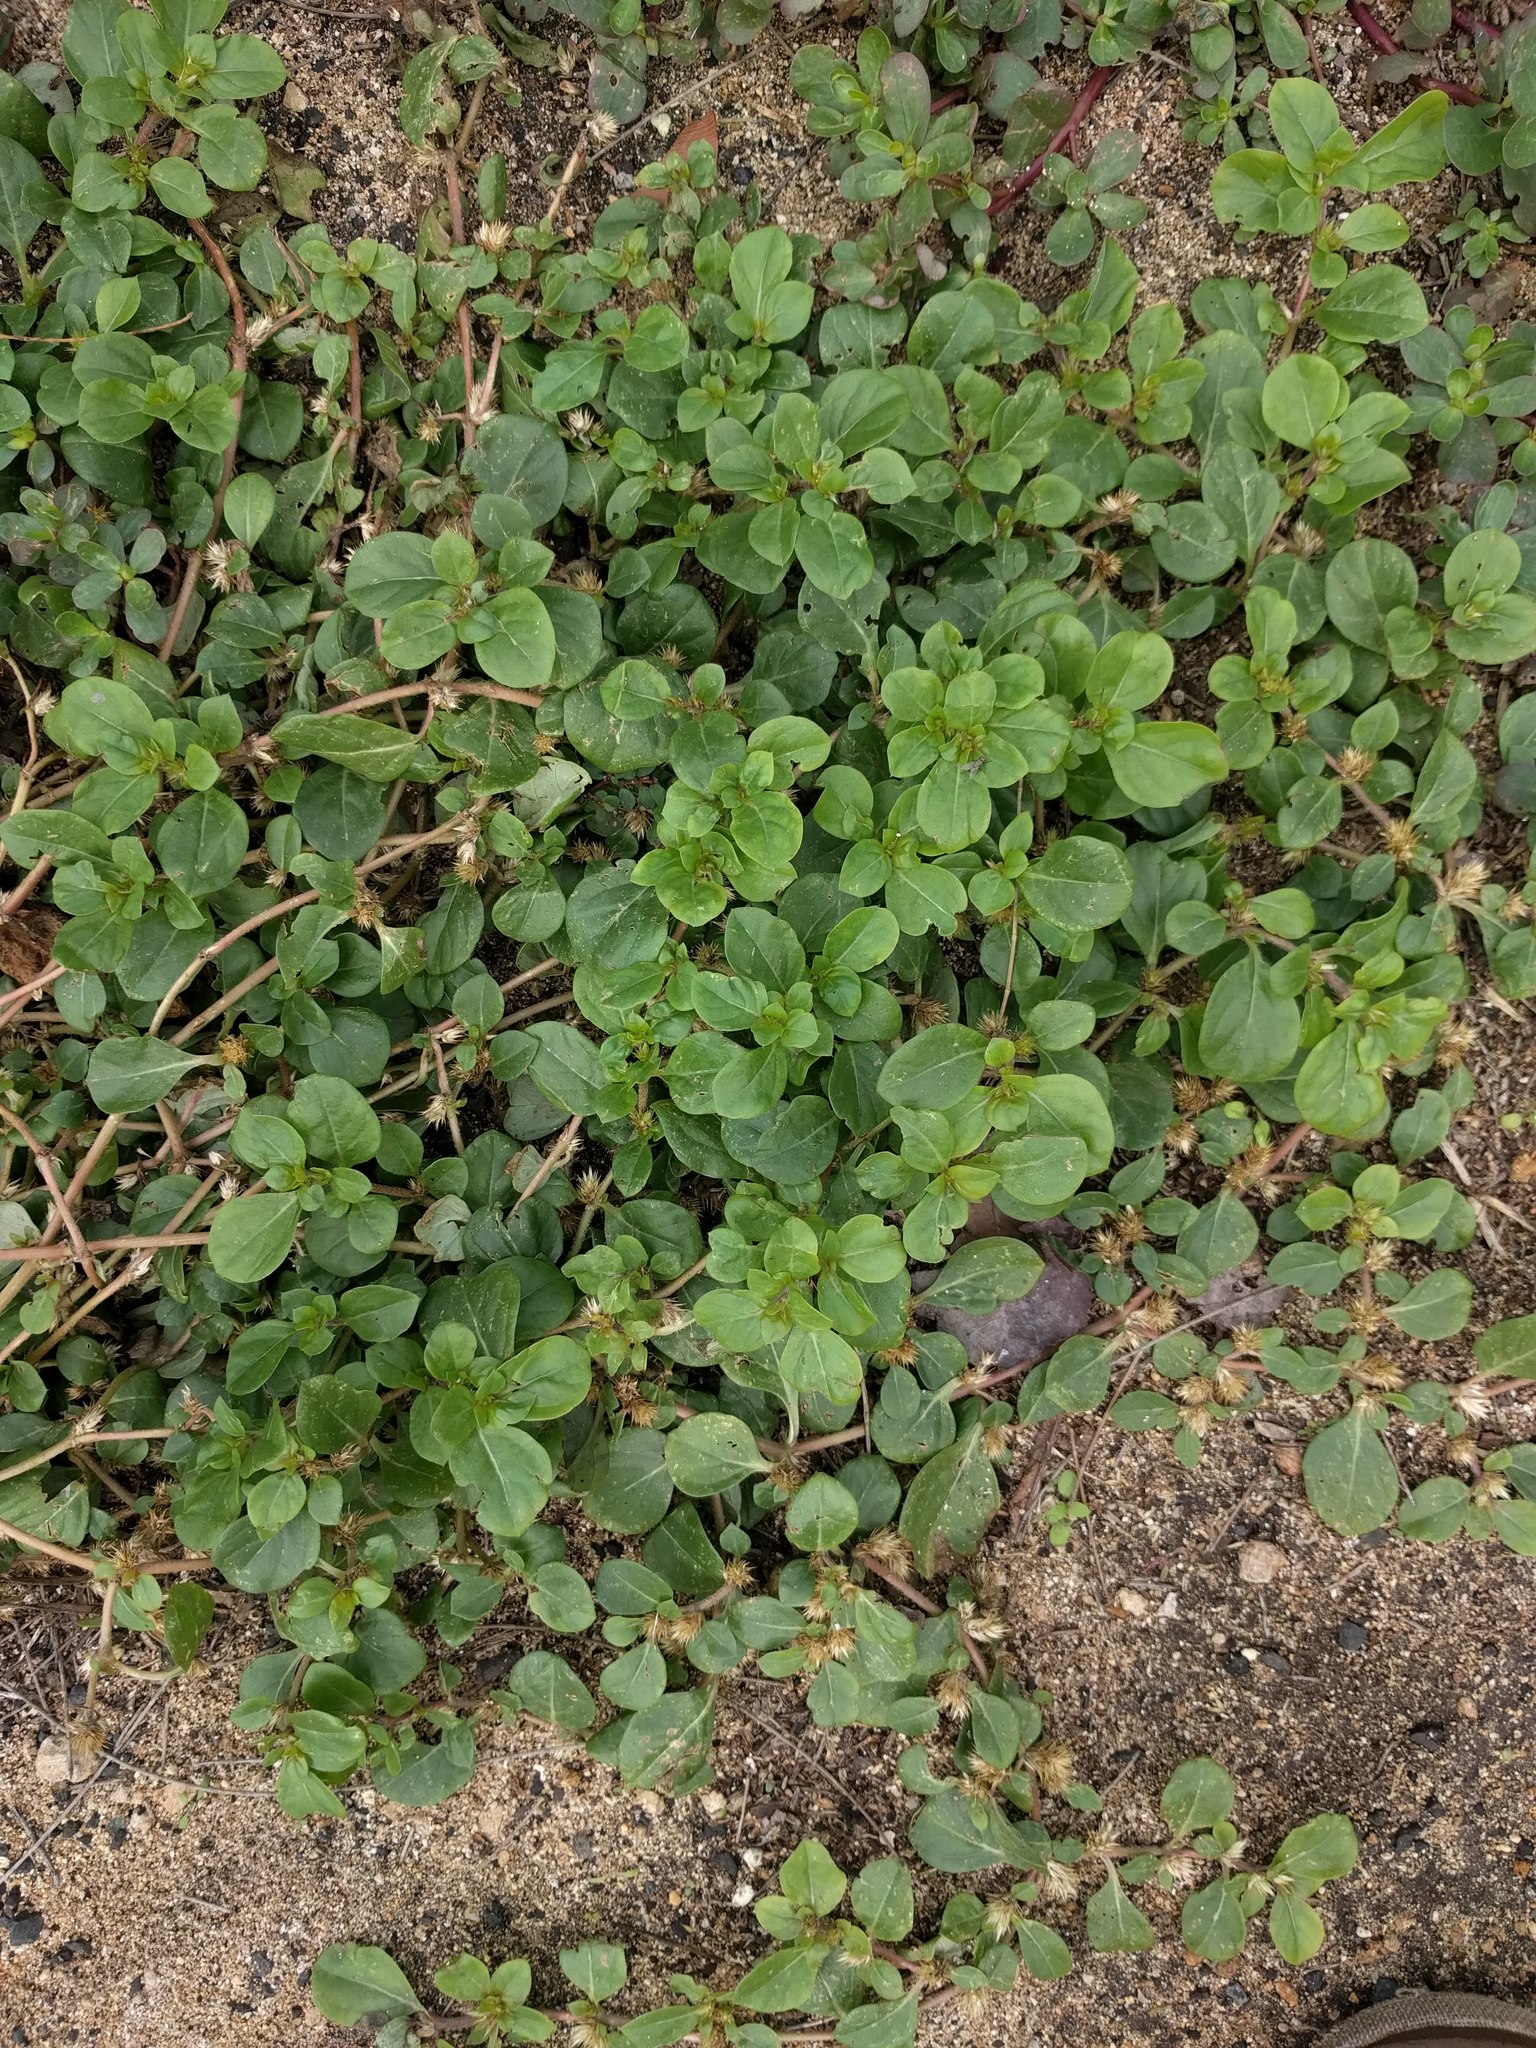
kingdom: Plantae
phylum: Tracheophyta
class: Magnoliopsida
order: Caryophyllales
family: Amaranthaceae
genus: Alternanthera
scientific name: Alternanthera pungens
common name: Khakiweed
